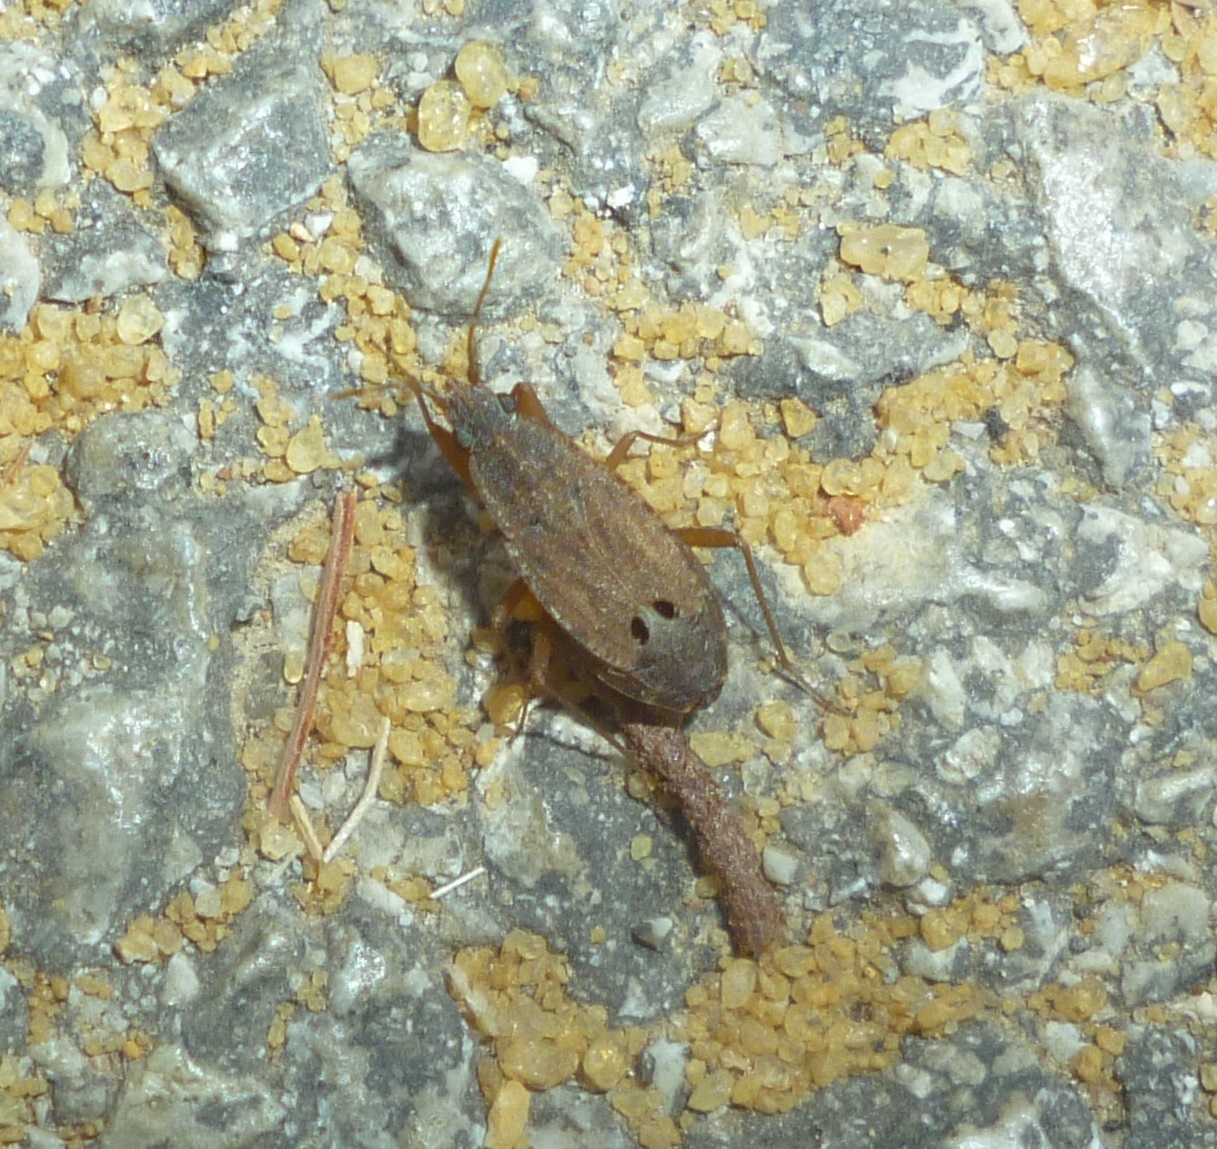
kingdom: Animalia
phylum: Arthropoda
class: Insecta
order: Hemiptera
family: Rhyparochromidae
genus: Ischnopeza
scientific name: Ischnopeza pallipes
